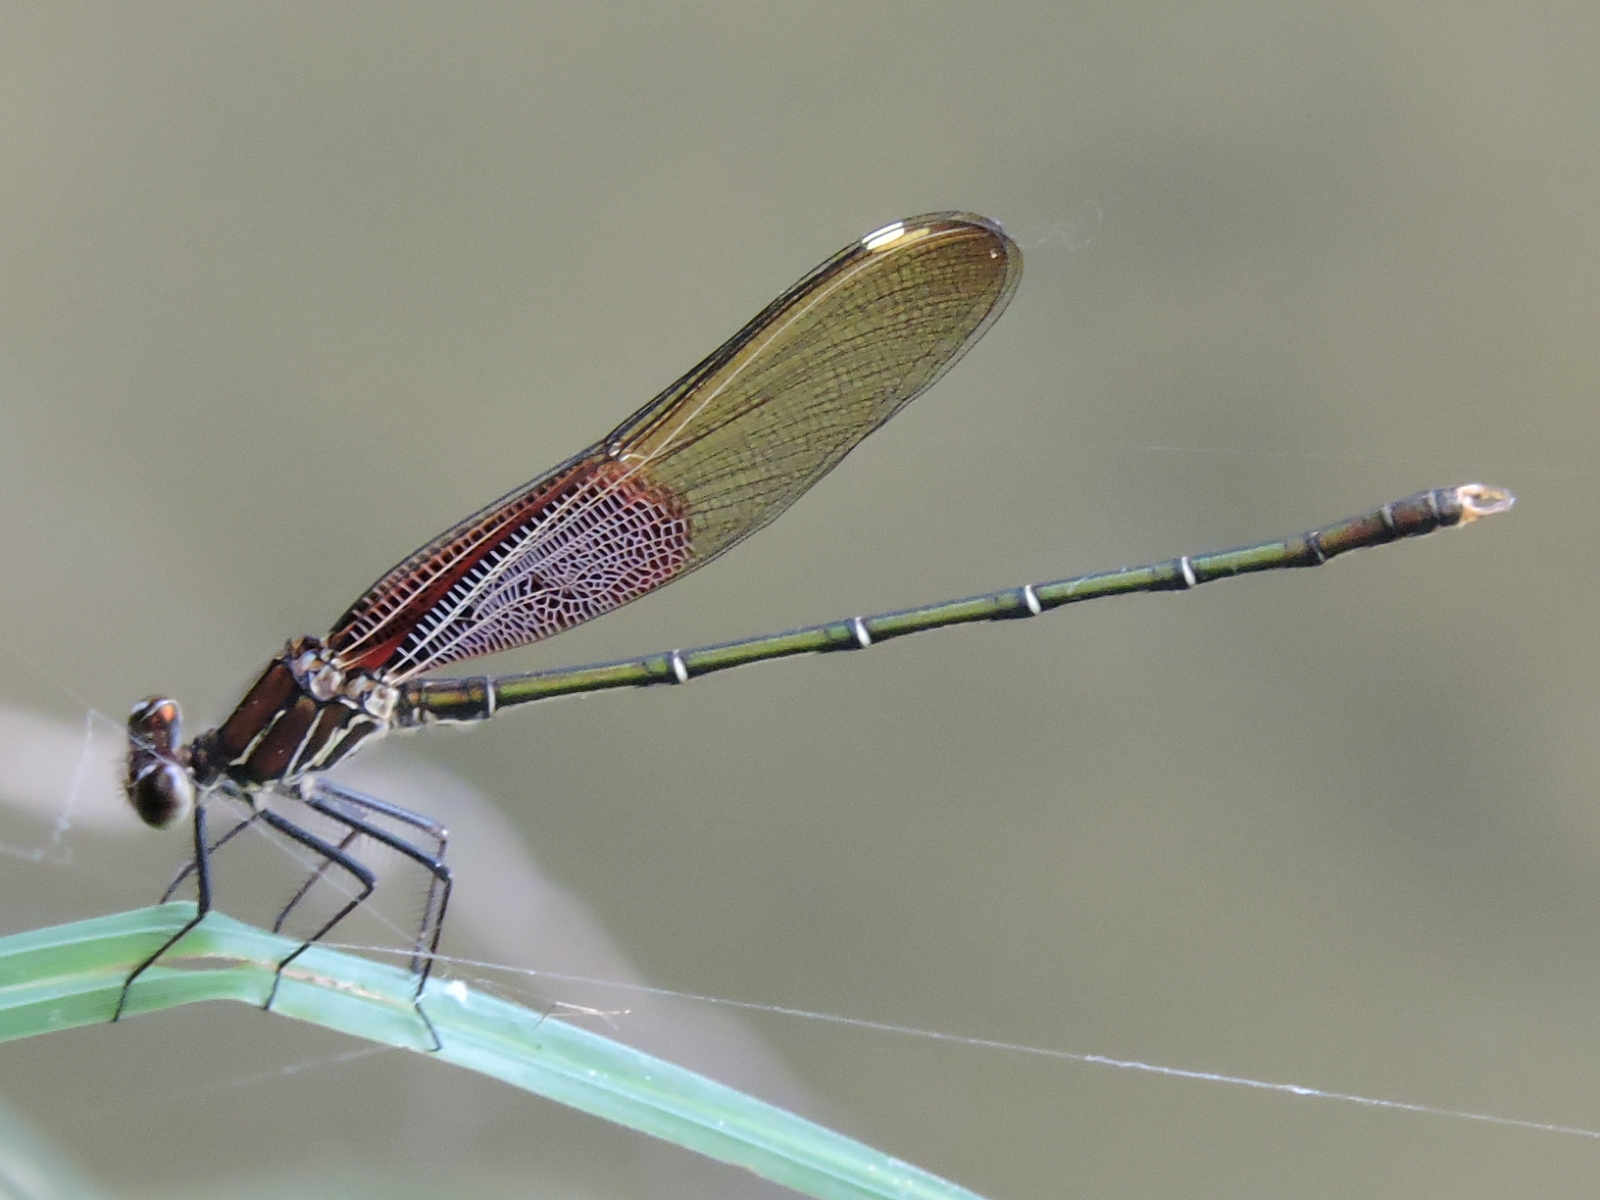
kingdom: Animalia
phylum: Arthropoda
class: Insecta
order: Odonata
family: Calopterygidae
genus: Hetaerina
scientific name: Hetaerina americana
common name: American rubyspot
